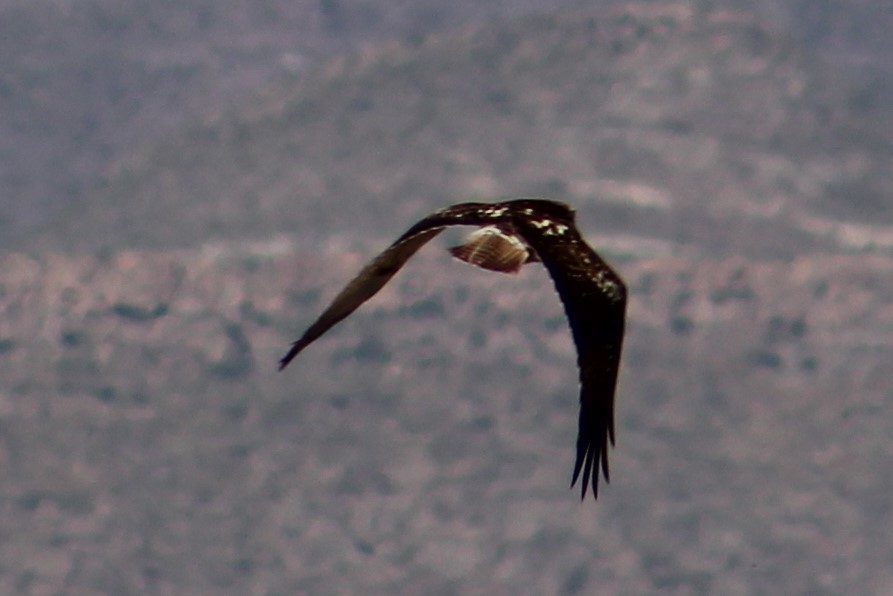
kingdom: Animalia
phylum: Chordata
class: Aves
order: Accipitriformes
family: Accipitridae
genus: Buteo
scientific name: Buteo jamaicensis
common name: Red-tailed hawk
